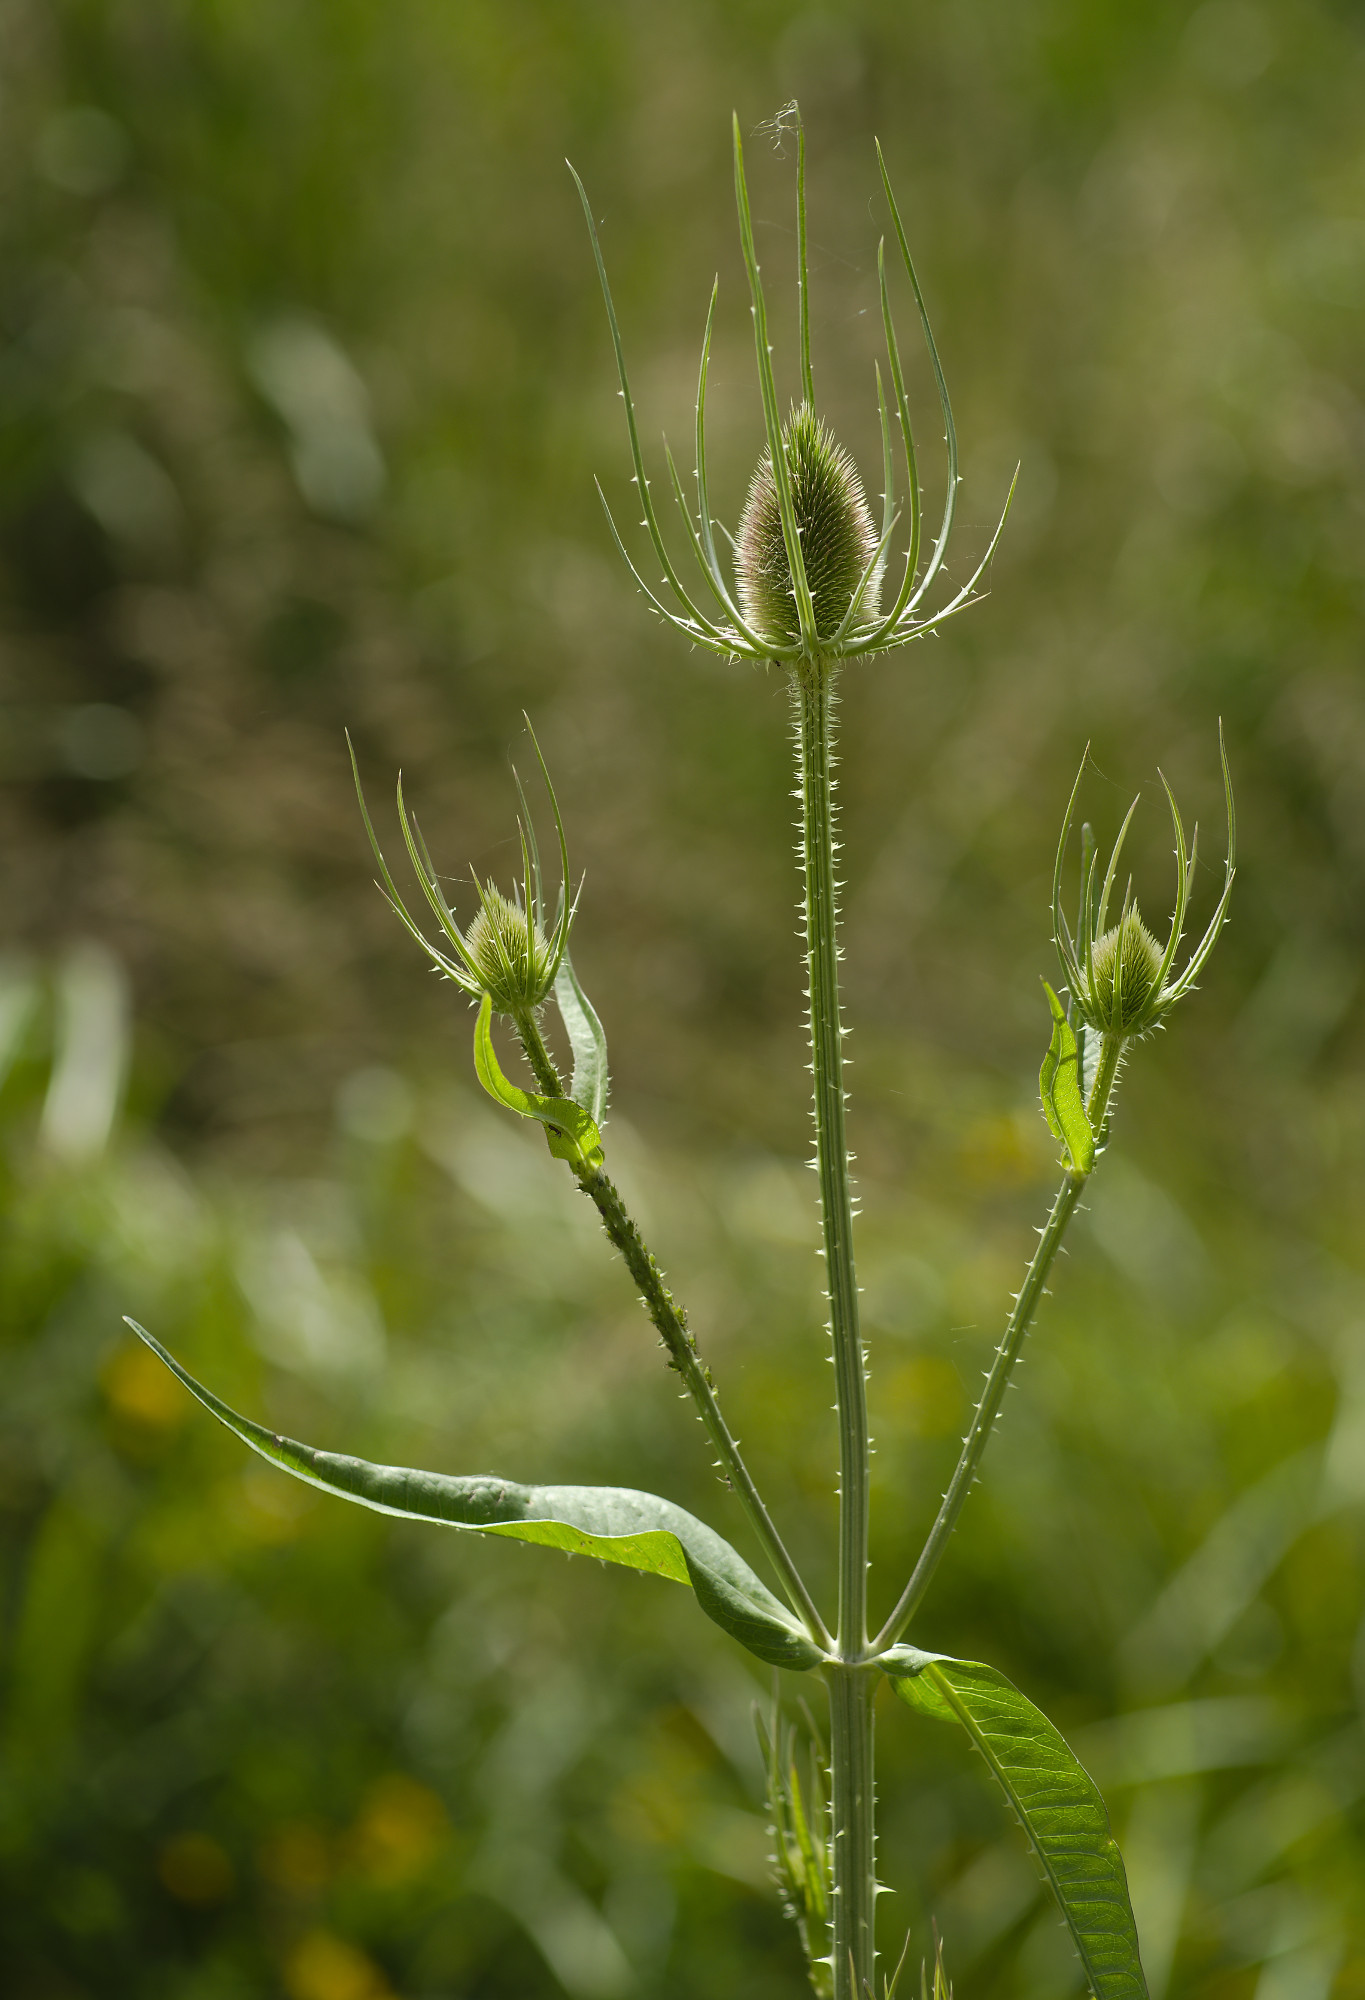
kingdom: Plantae
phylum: Tracheophyta
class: Magnoliopsida
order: Dipsacales
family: Caprifoliaceae
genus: Dipsacus
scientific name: Dipsacus fullonum
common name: Teasel
